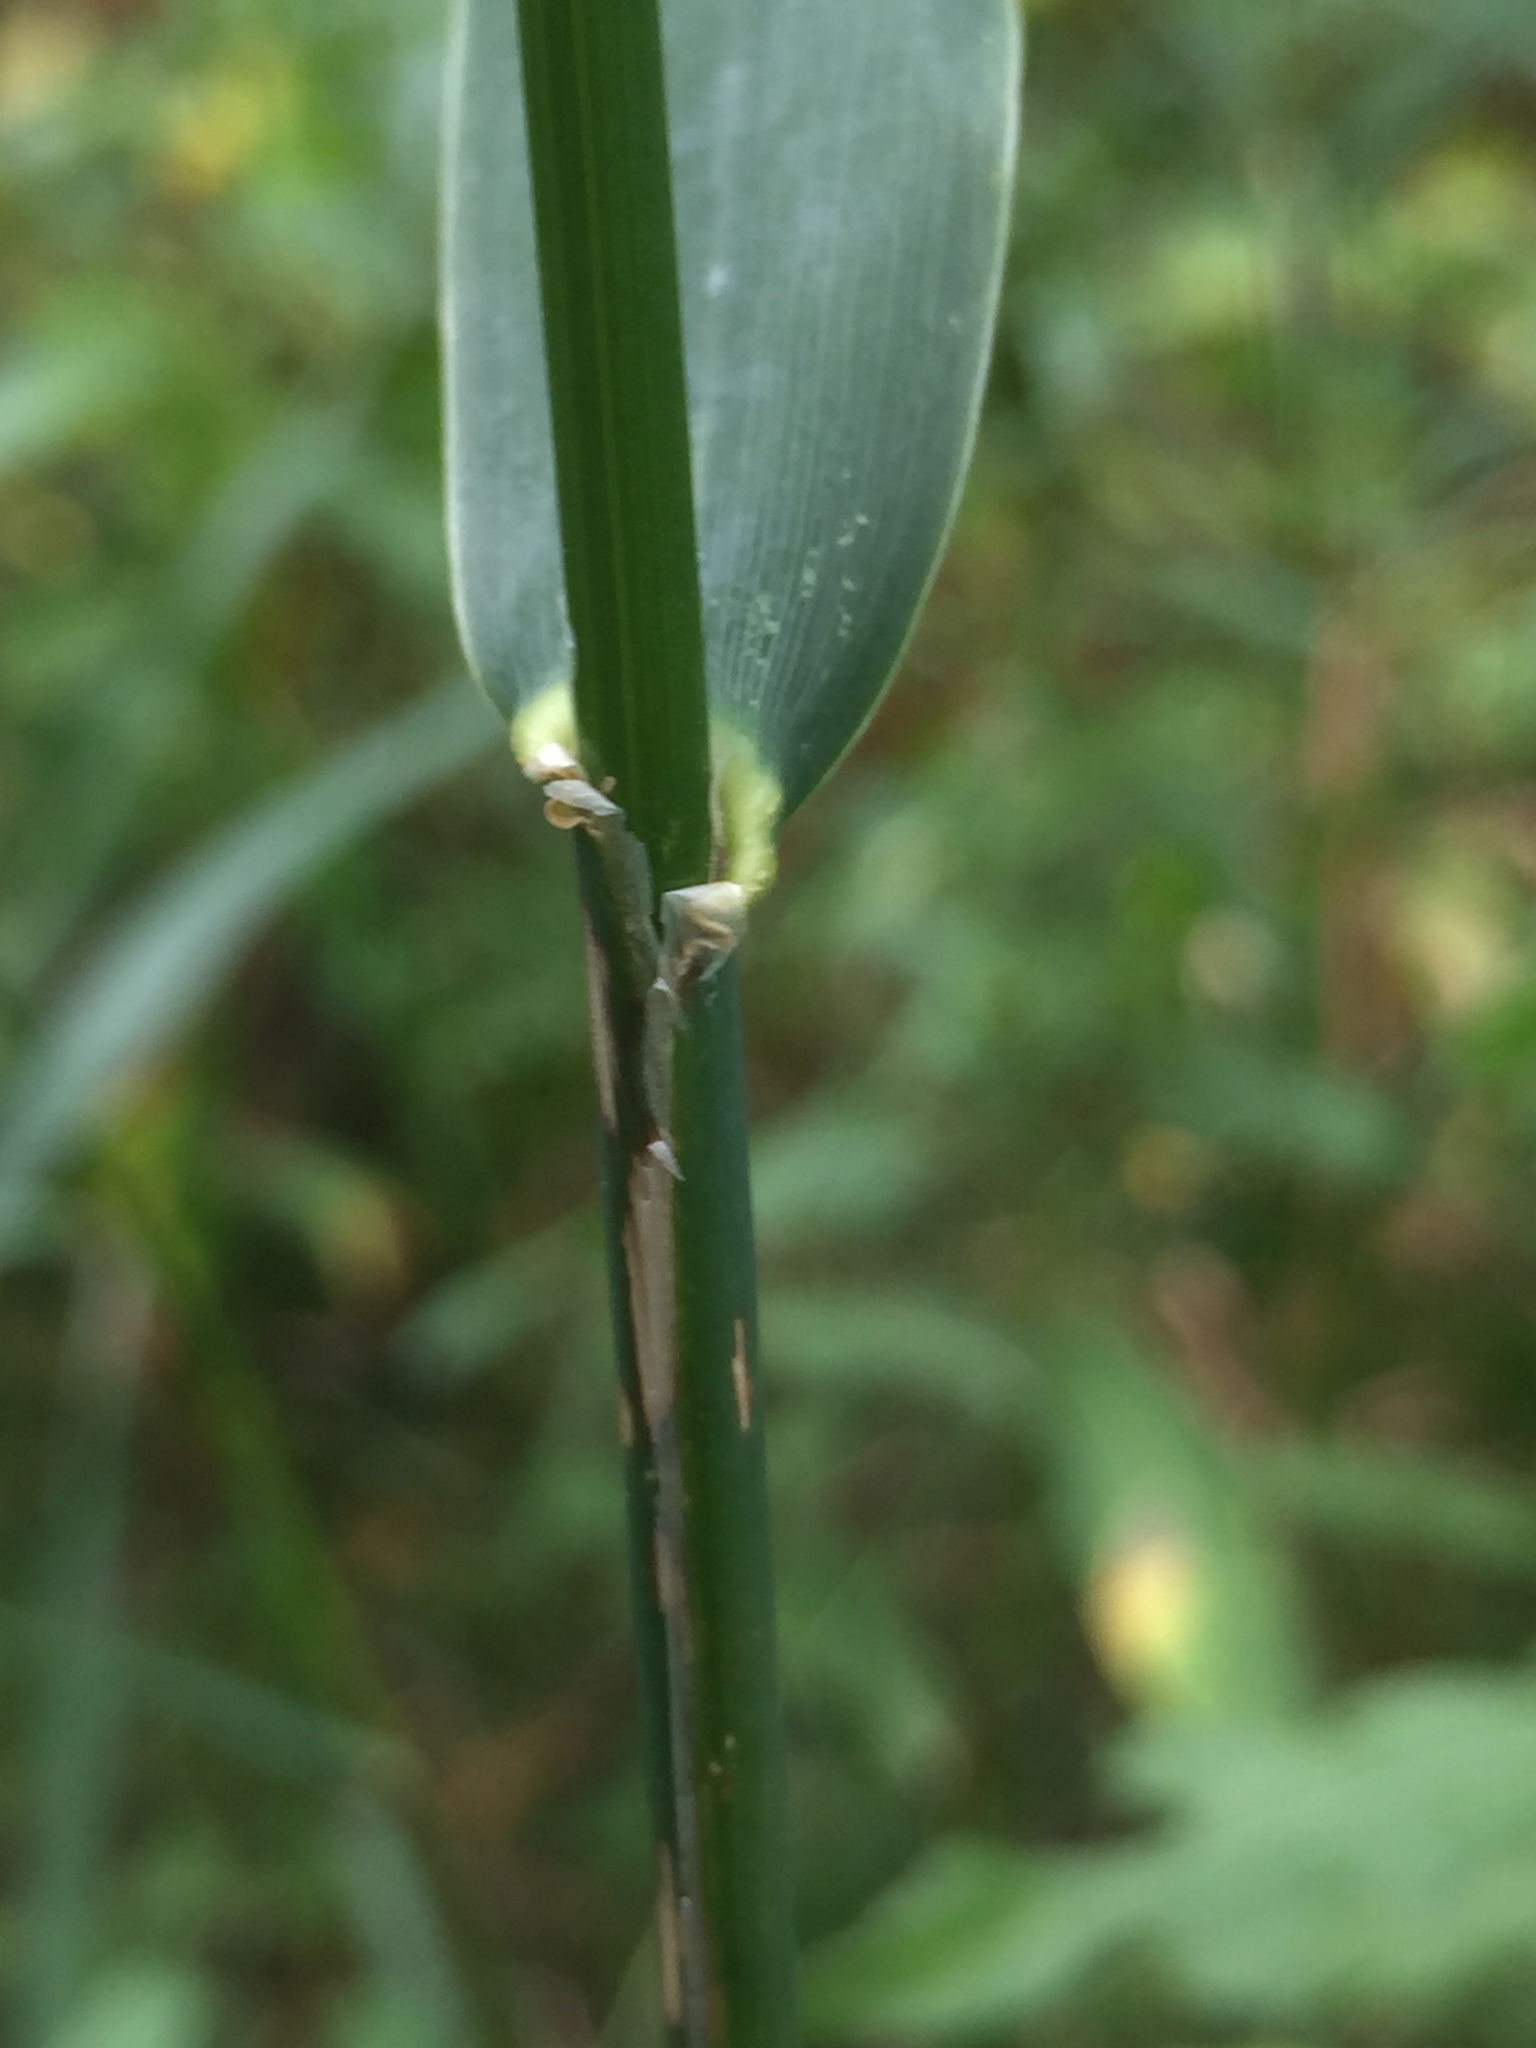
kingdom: Plantae
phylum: Tracheophyta
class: Liliopsida
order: Poales
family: Poaceae
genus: Phalaris
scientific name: Phalaris arundinacea
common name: Reed canary-grass
